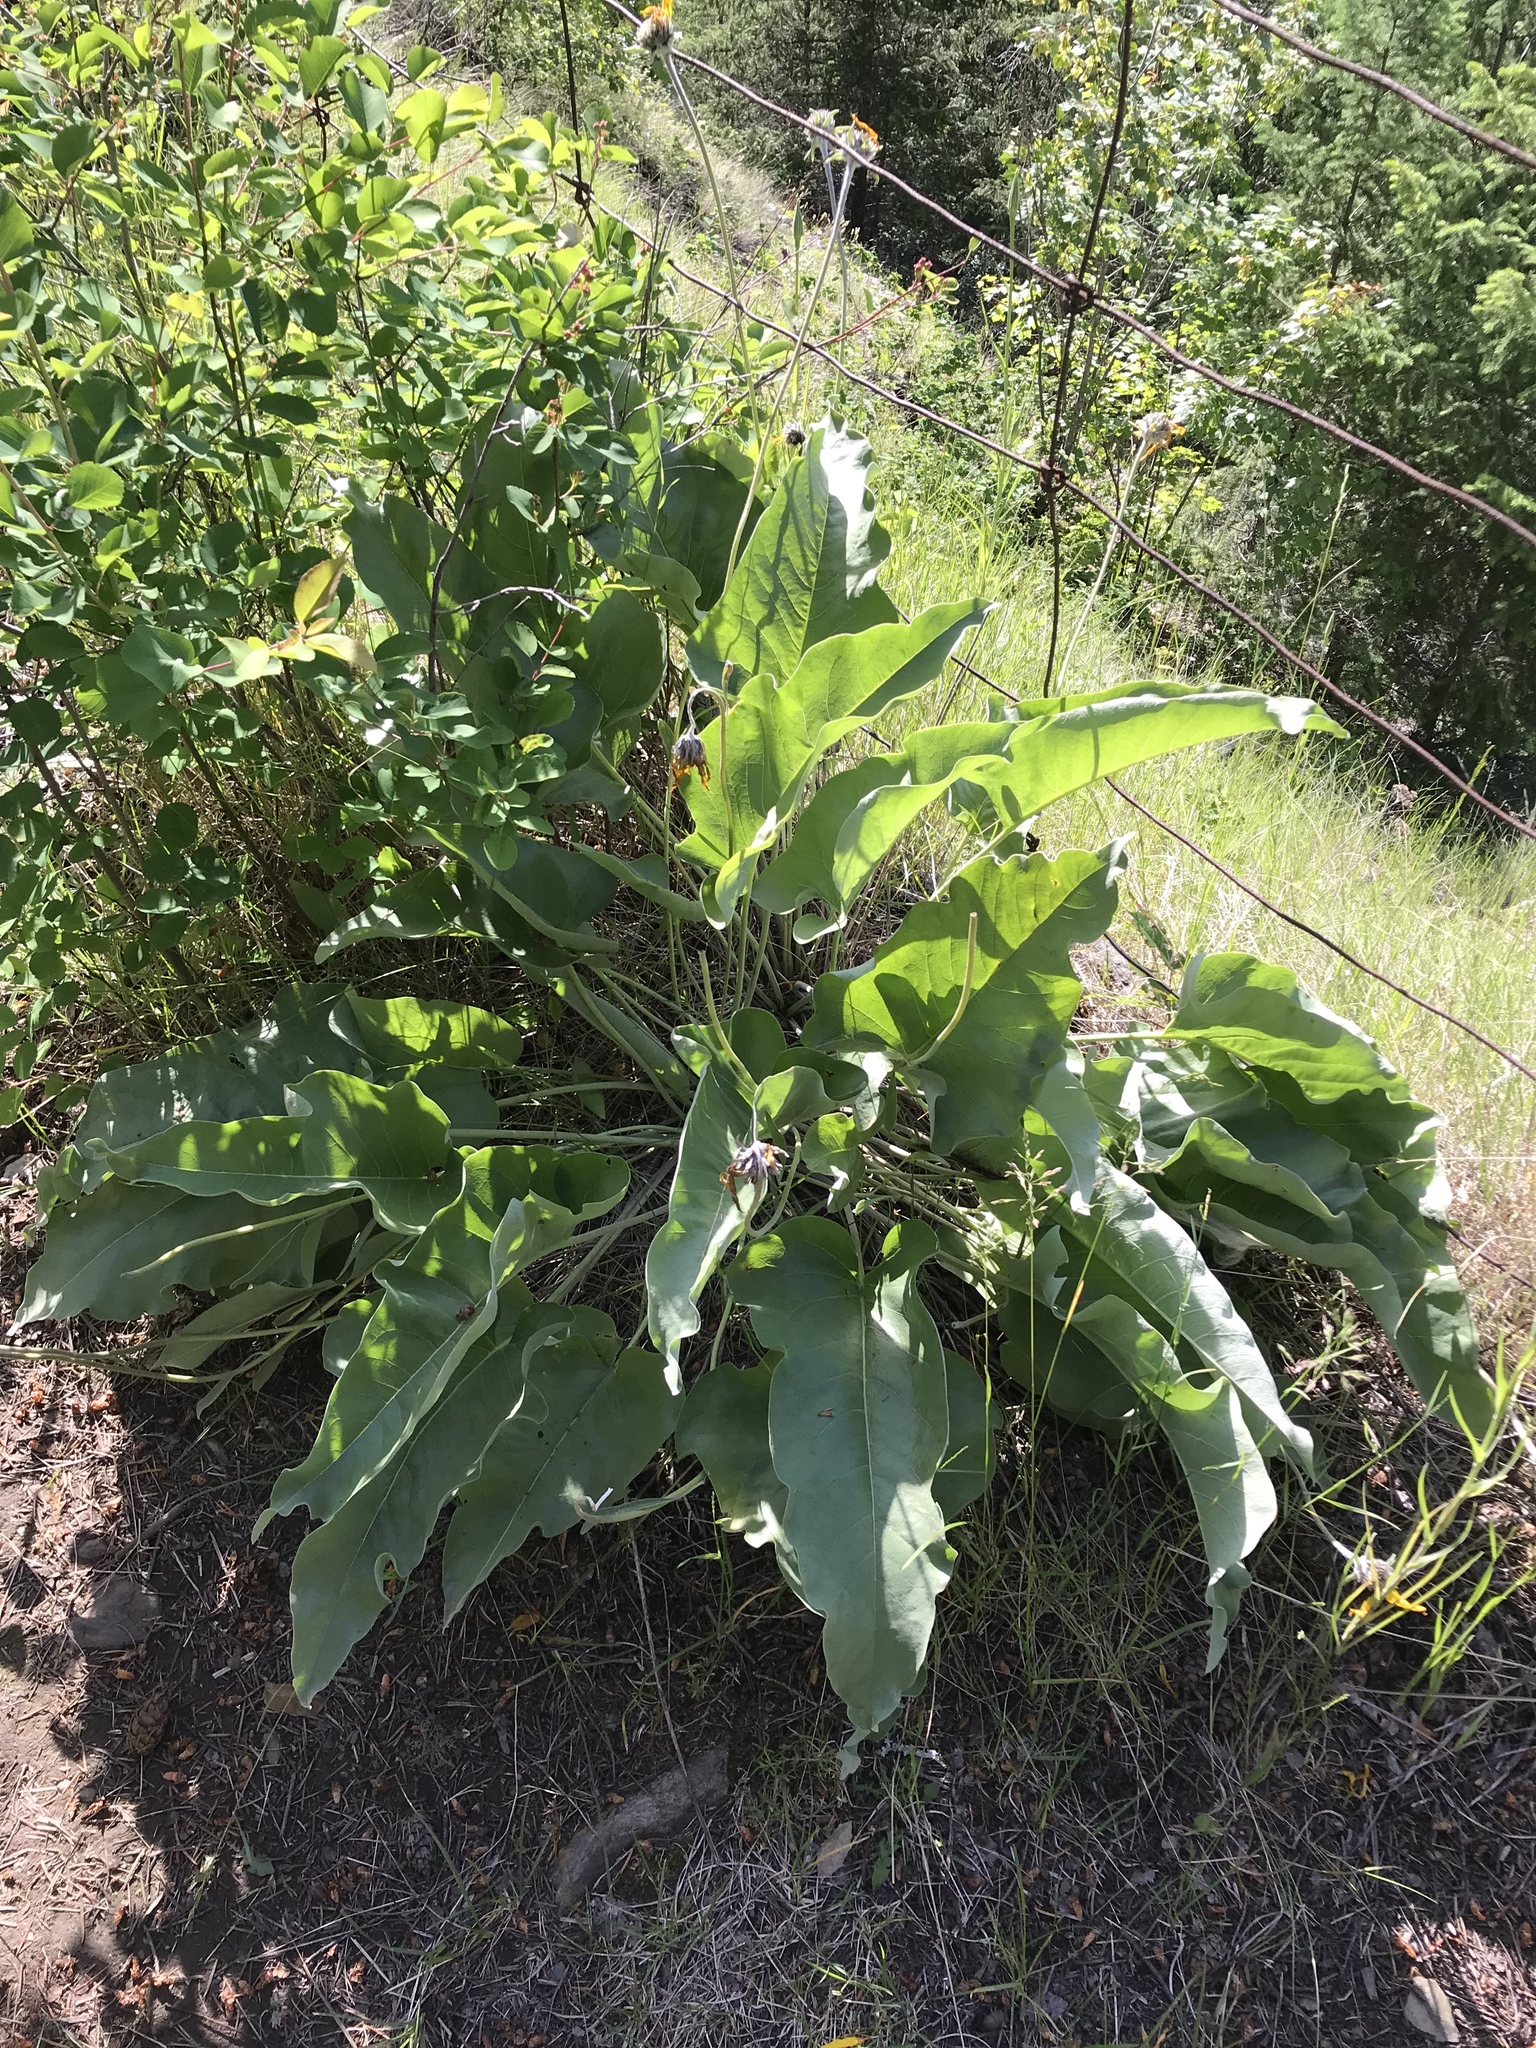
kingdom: Plantae
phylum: Tracheophyta
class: Magnoliopsida
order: Asterales
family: Asteraceae
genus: Wyethia
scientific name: Wyethia sagittata
